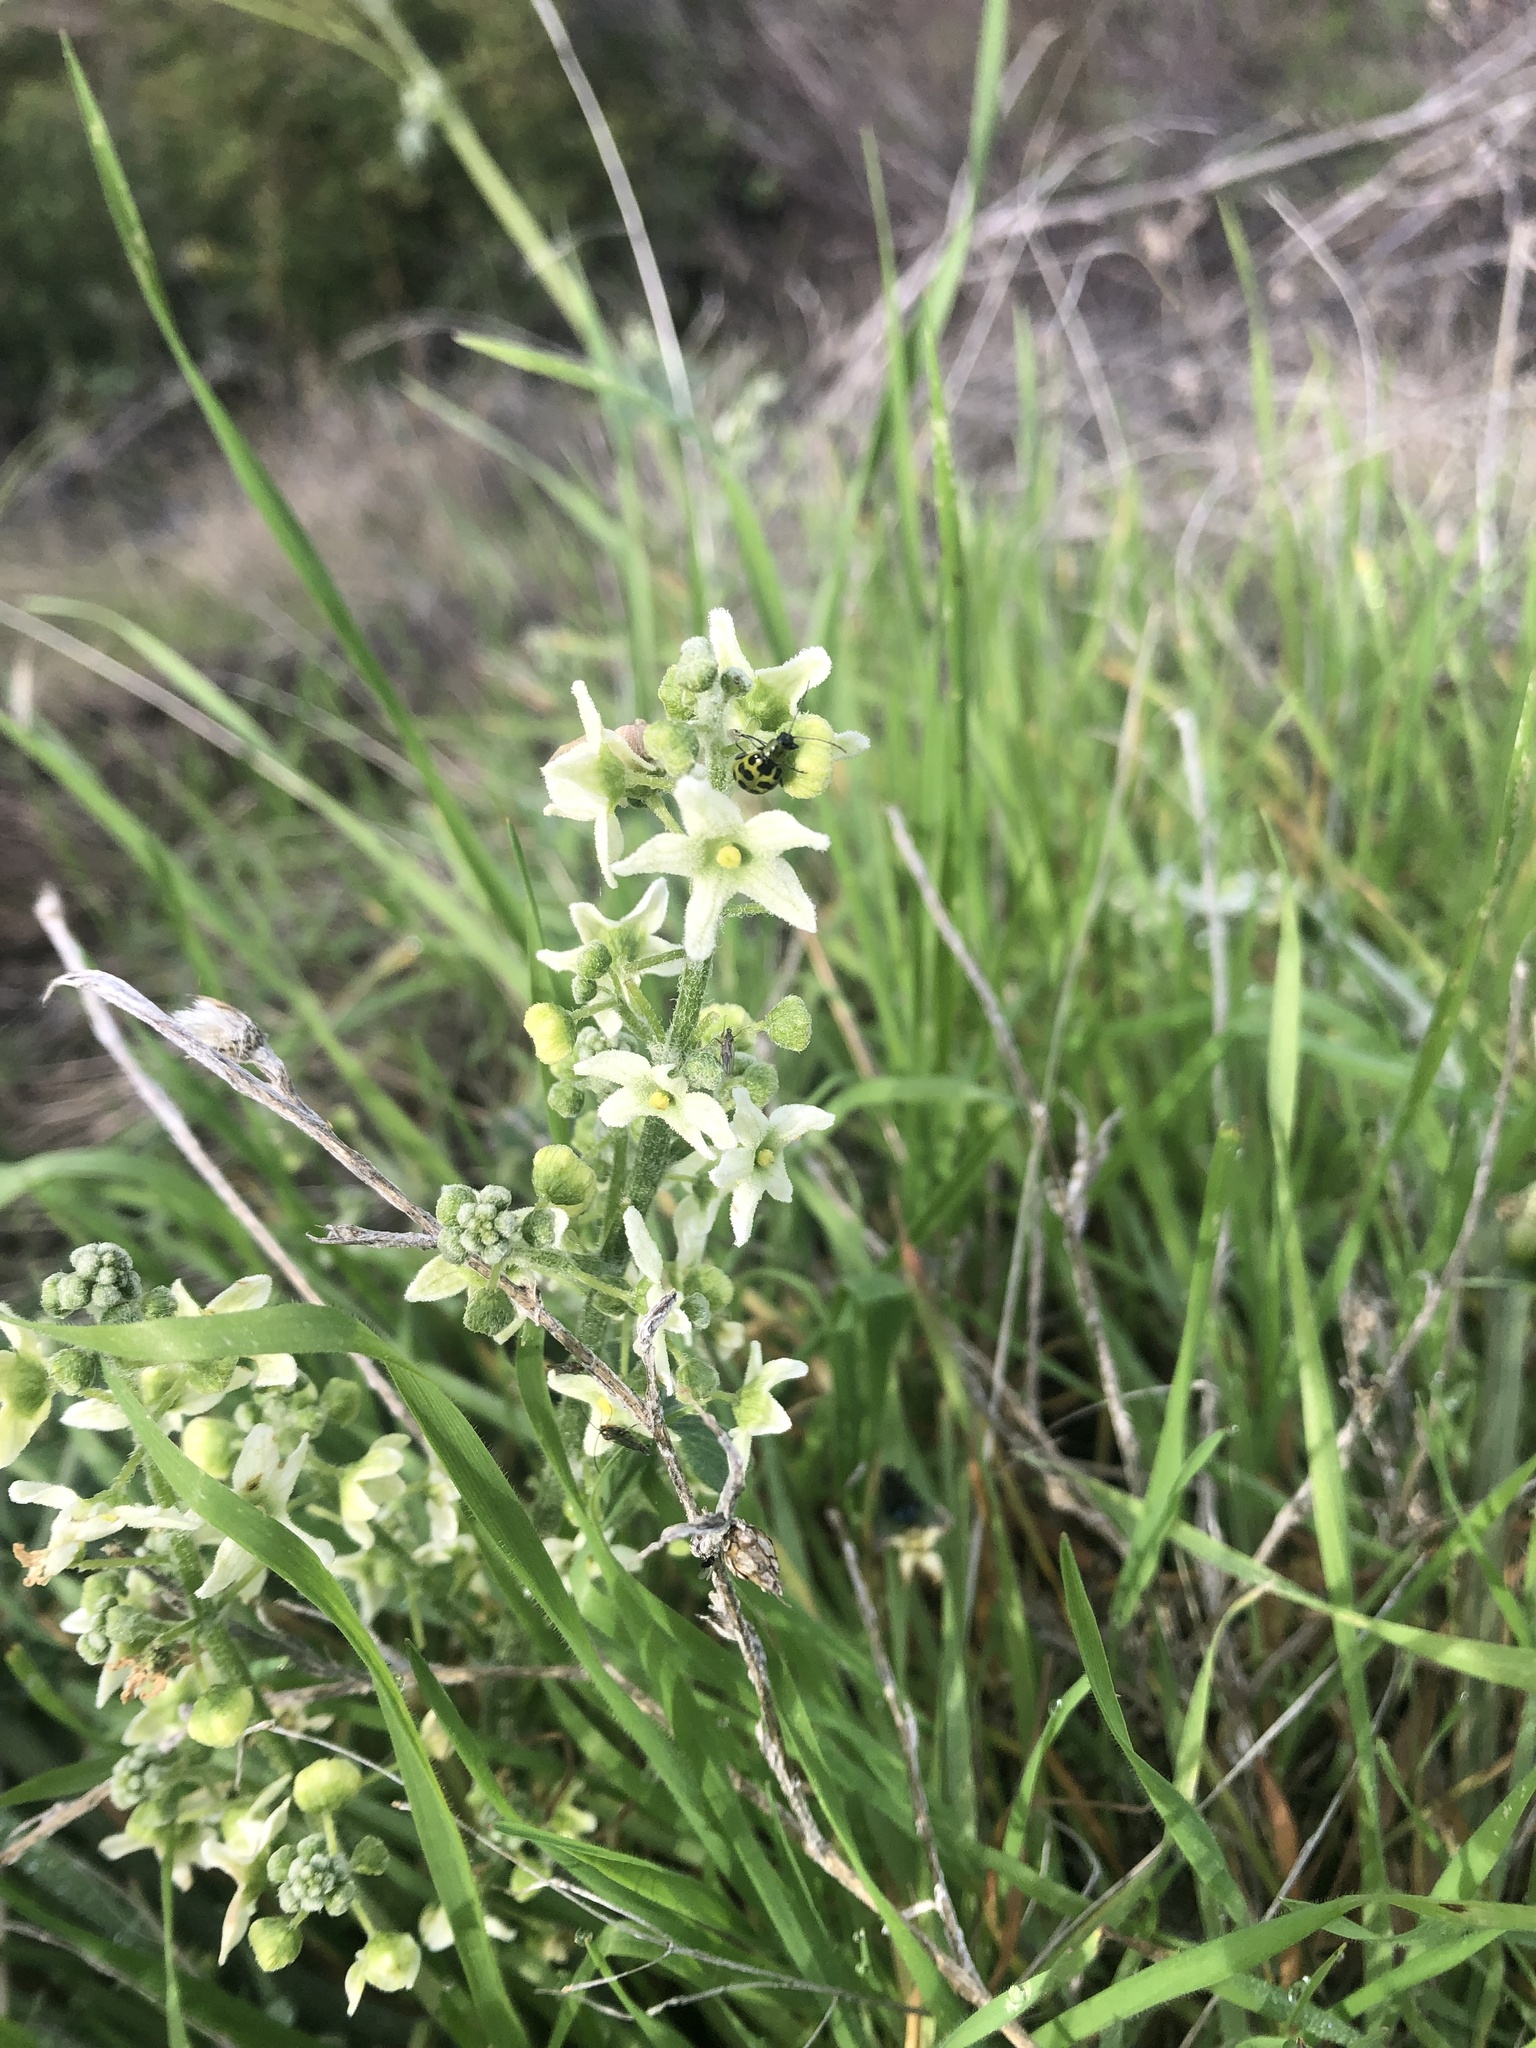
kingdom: Plantae
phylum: Tracheophyta
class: Magnoliopsida
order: Cucurbitales
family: Cucurbitaceae
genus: Marah
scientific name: Marah fabacea
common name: California manroot
